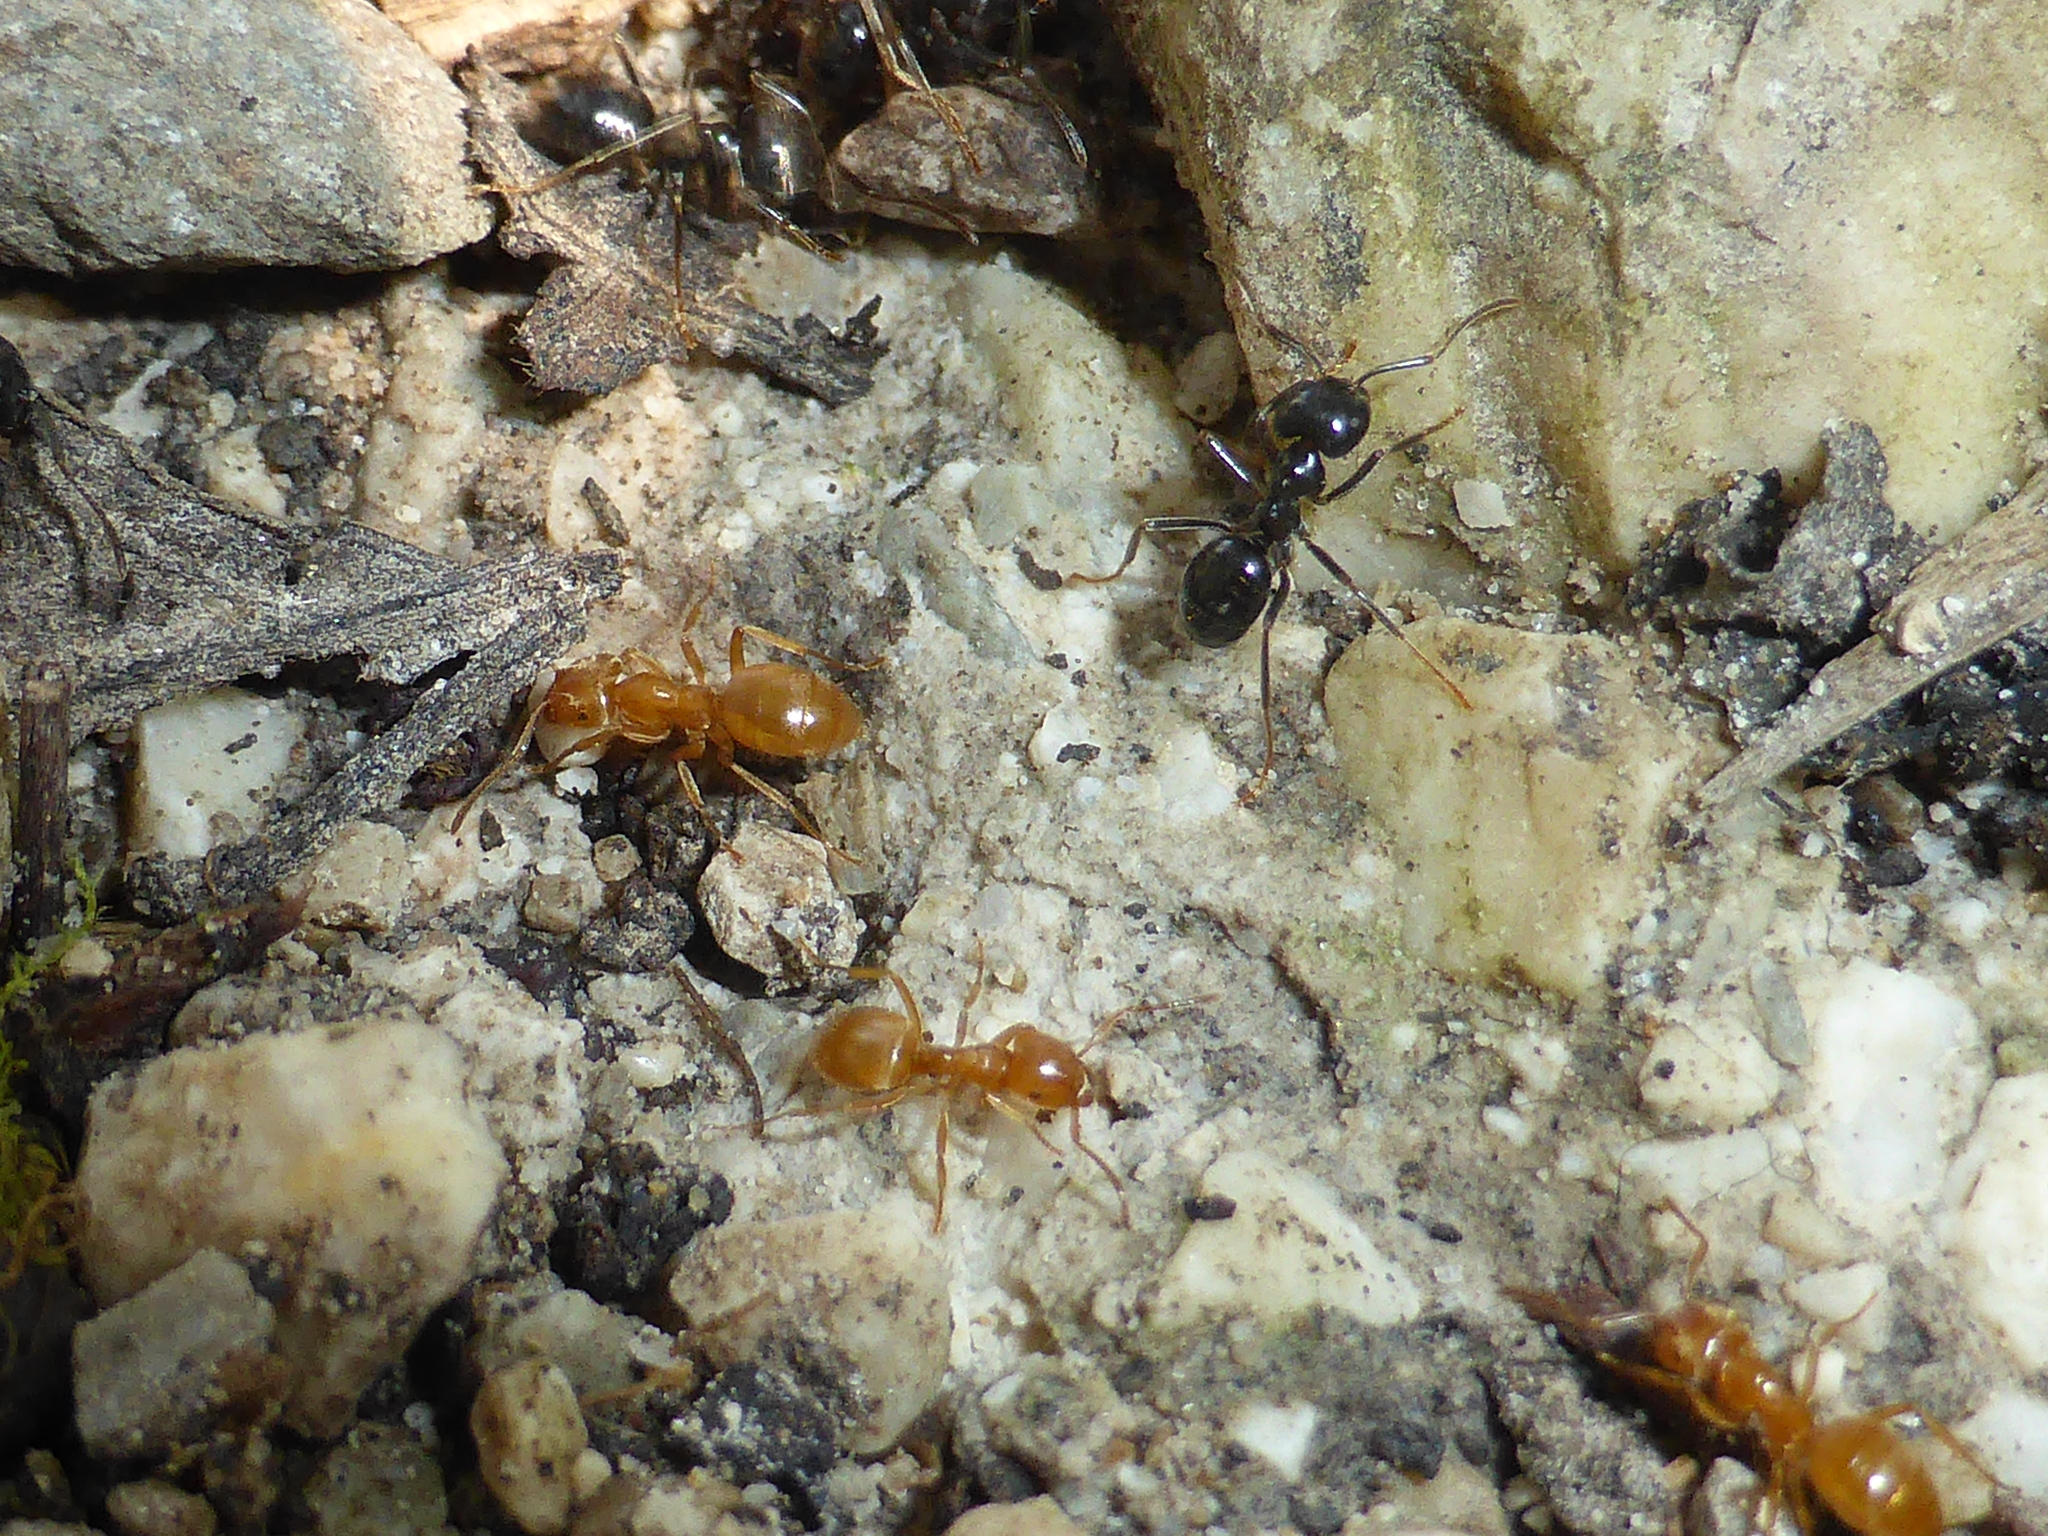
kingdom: Animalia
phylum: Arthropoda
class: Insecta
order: Hymenoptera
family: Formicidae
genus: Lasius
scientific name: Lasius fuliginosus
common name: Jet ant
